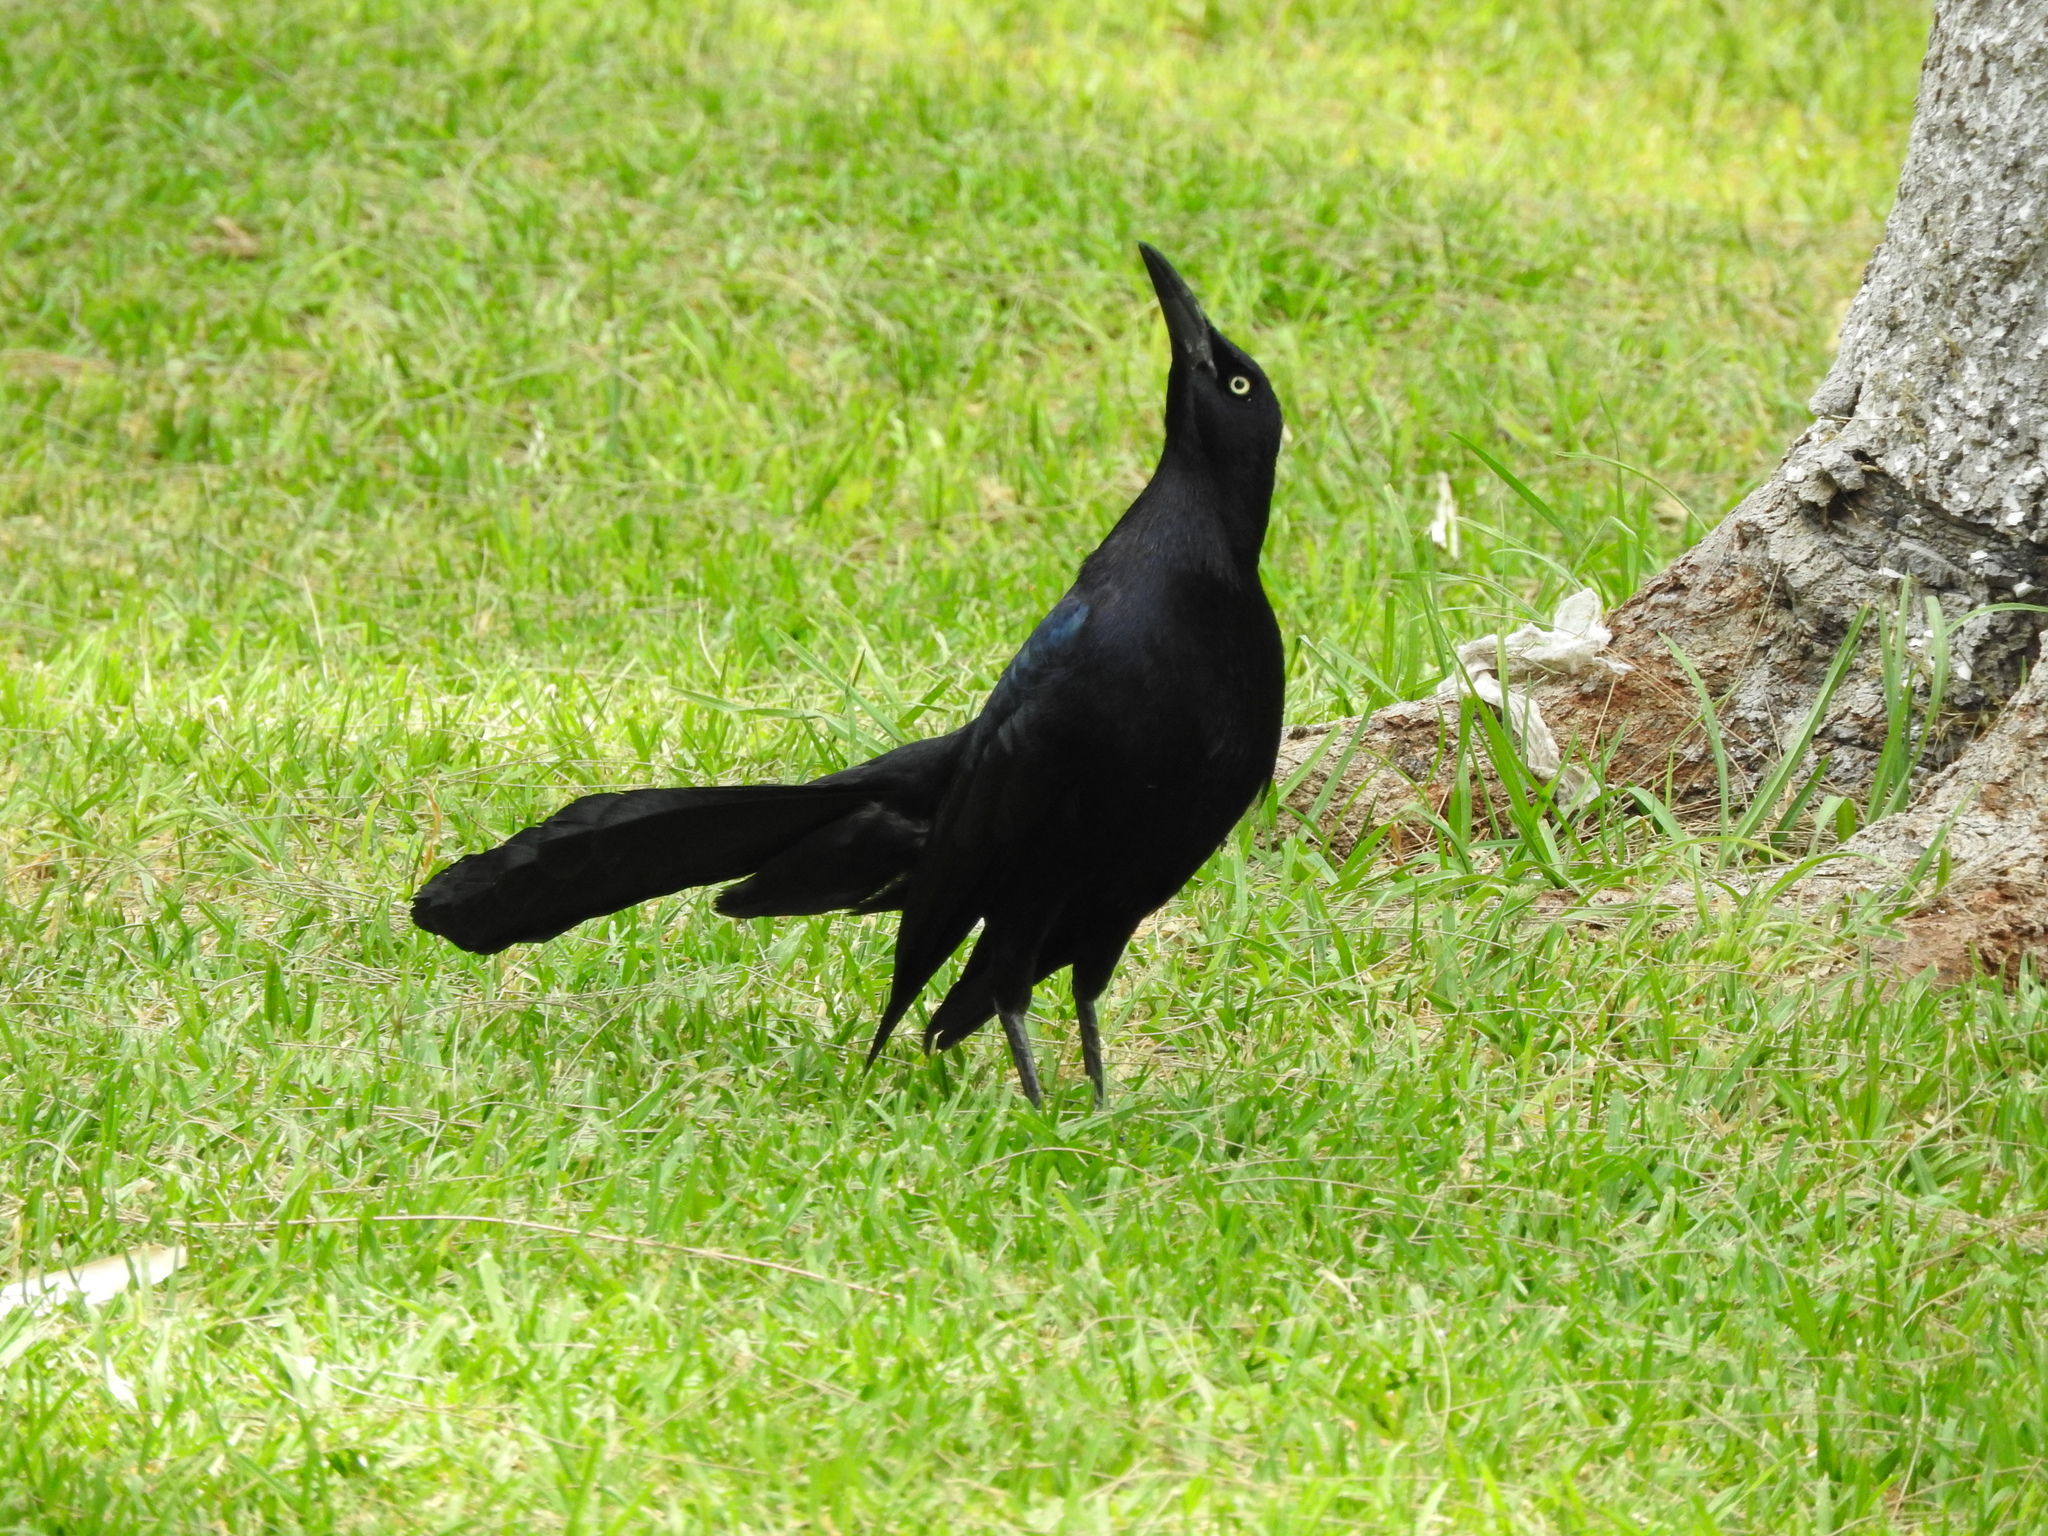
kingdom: Animalia
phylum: Chordata
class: Aves
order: Passeriformes
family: Icteridae
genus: Quiscalus
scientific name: Quiscalus mexicanus
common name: Great-tailed grackle
